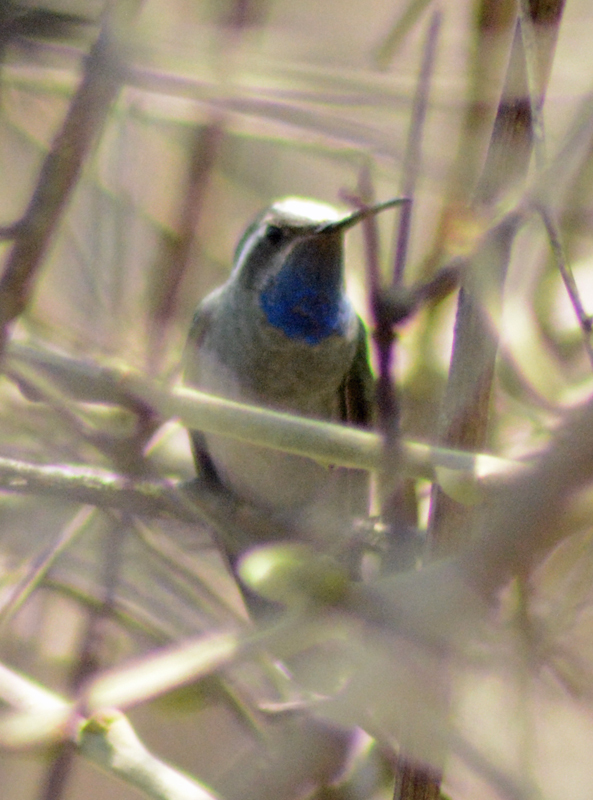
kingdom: Animalia
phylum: Chordata
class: Aves
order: Apodiformes
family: Trochilidae
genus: Lampornis
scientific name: Lampornis clemenciae
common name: Blue-throated mountaingem
